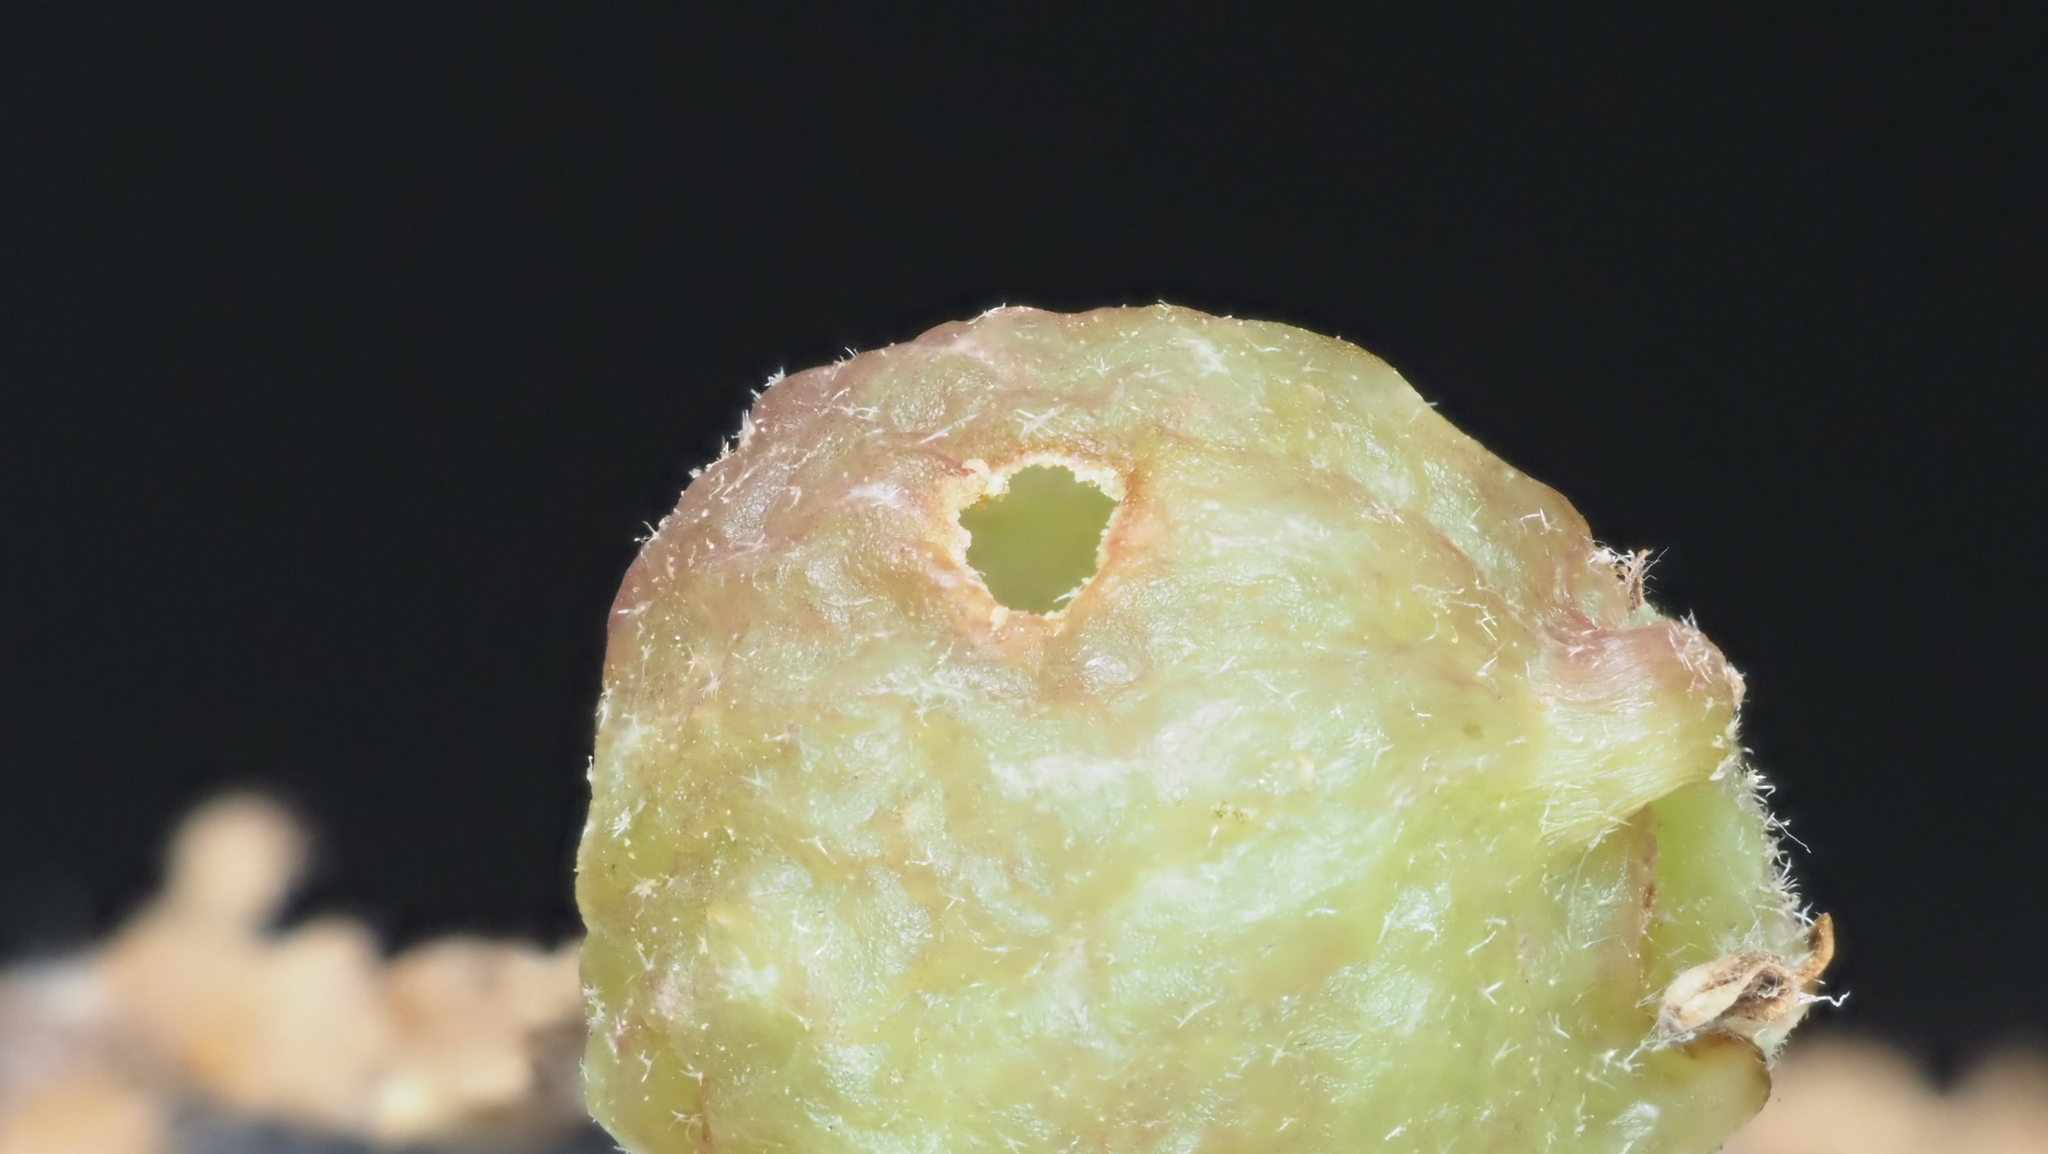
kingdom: Animalia
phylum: Arthropoda
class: Insecta
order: Hymenoptera
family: Cynipidae
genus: Dryocosmus
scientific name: Dryocosmus quercuspalustris
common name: Succulent oak gall wasp
